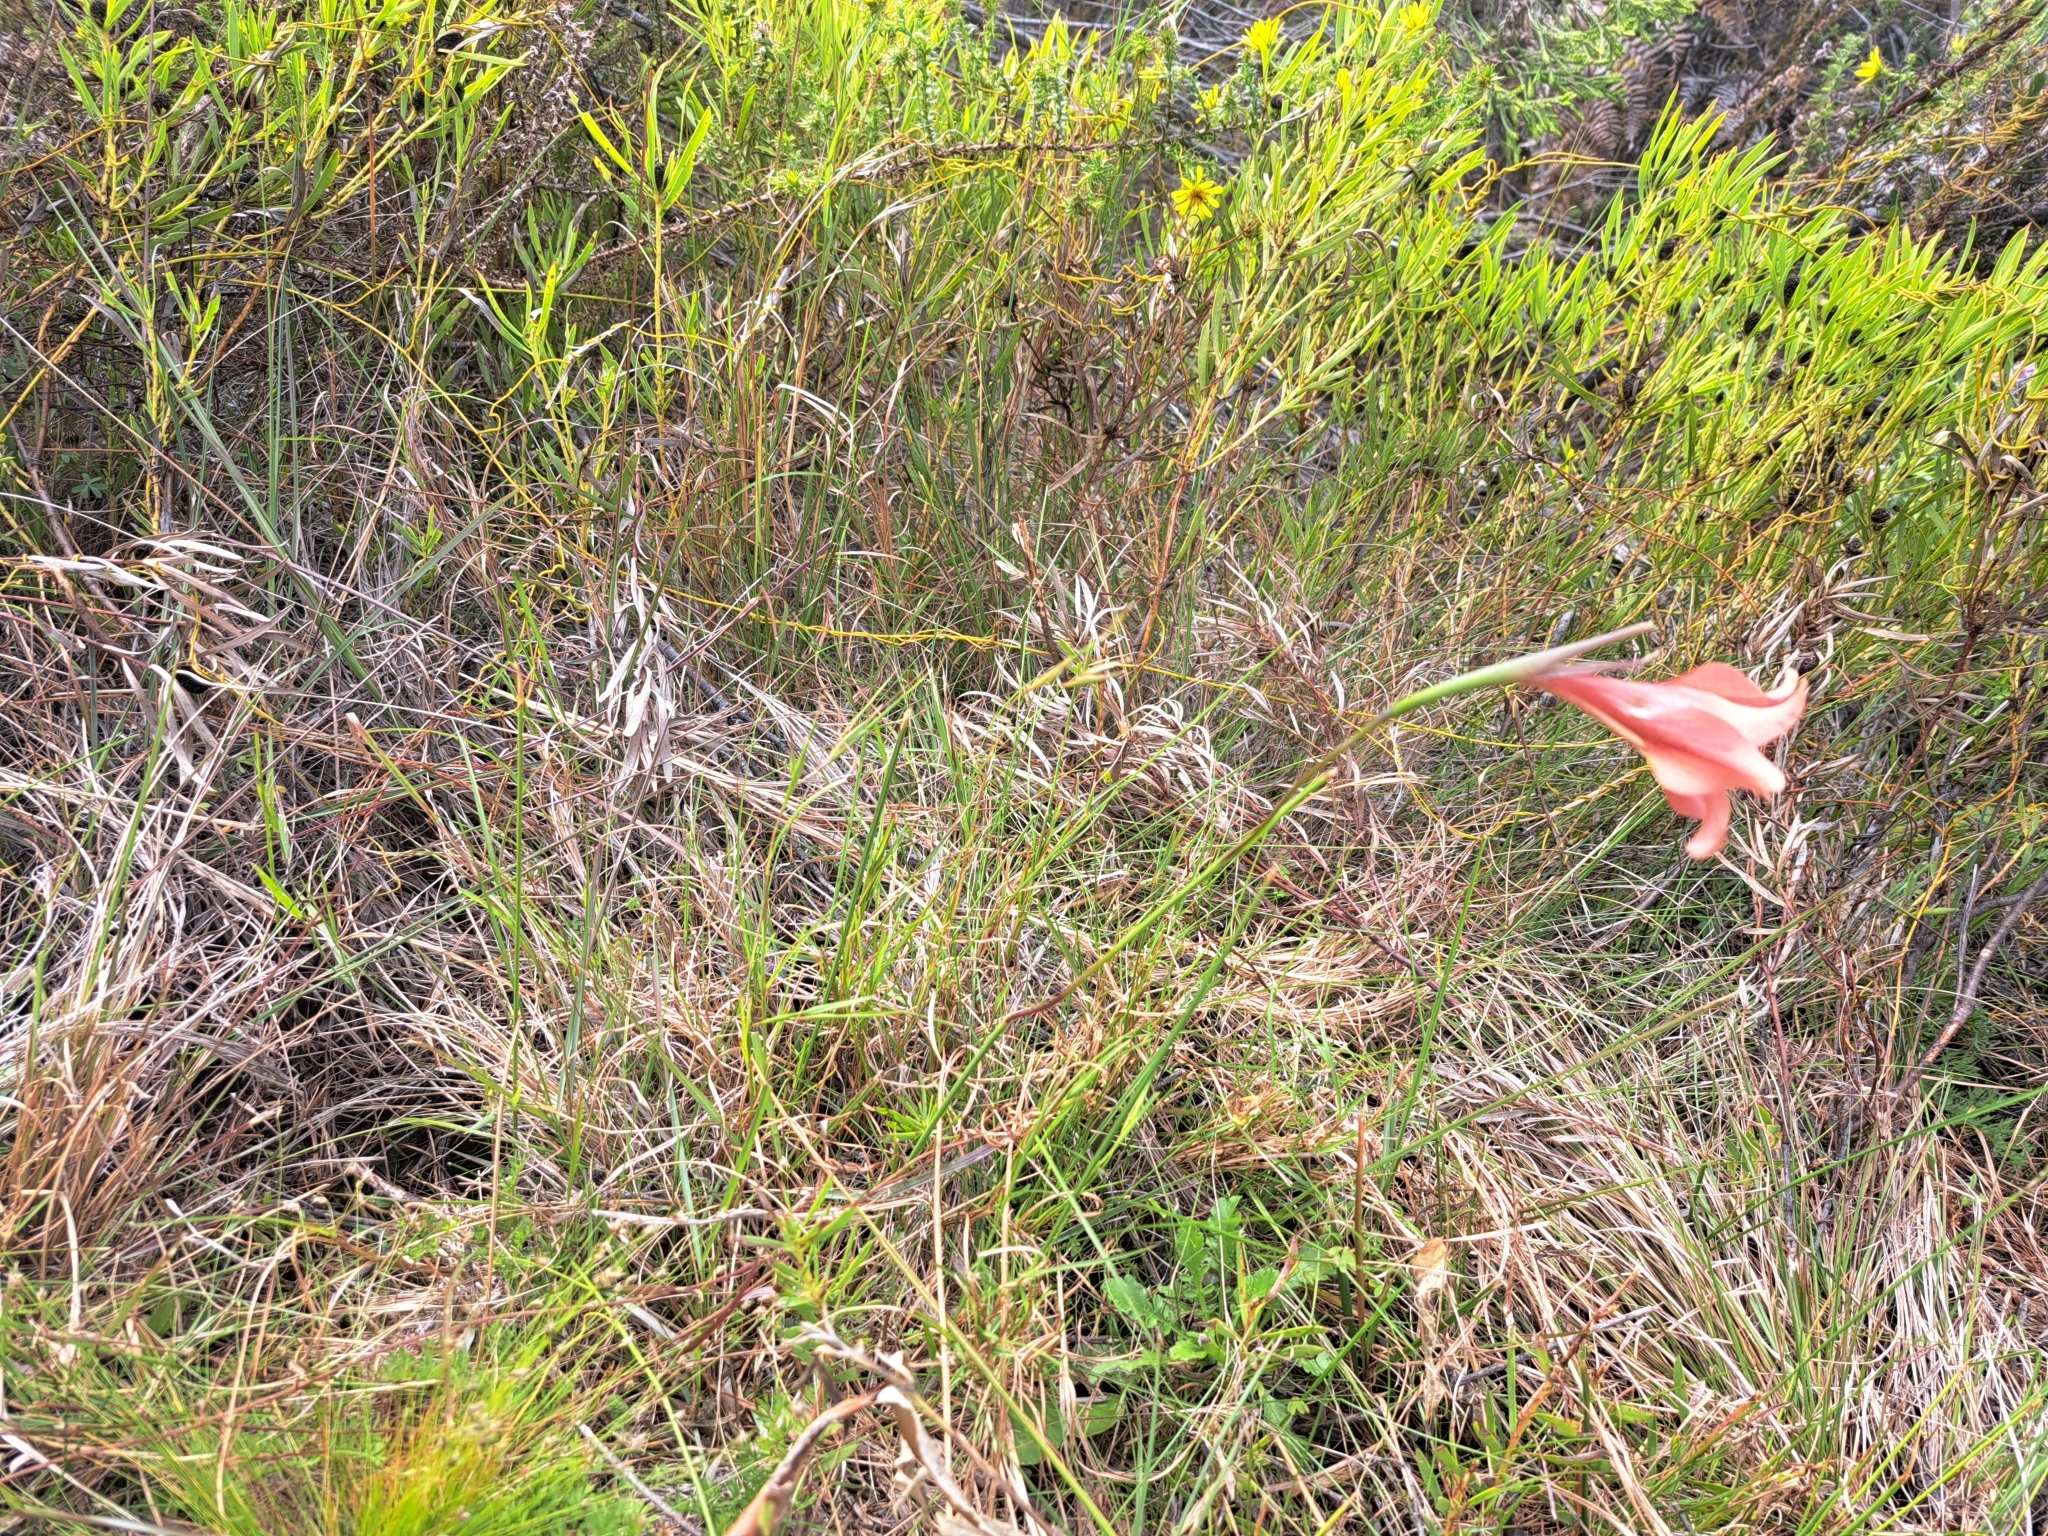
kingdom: Plantae
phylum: Tracheophyta
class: Liliopsida
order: Asparagales
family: Iridaceae
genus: Gladiolus
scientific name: Gladiolus liliaceus
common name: Large brown afrikaner
